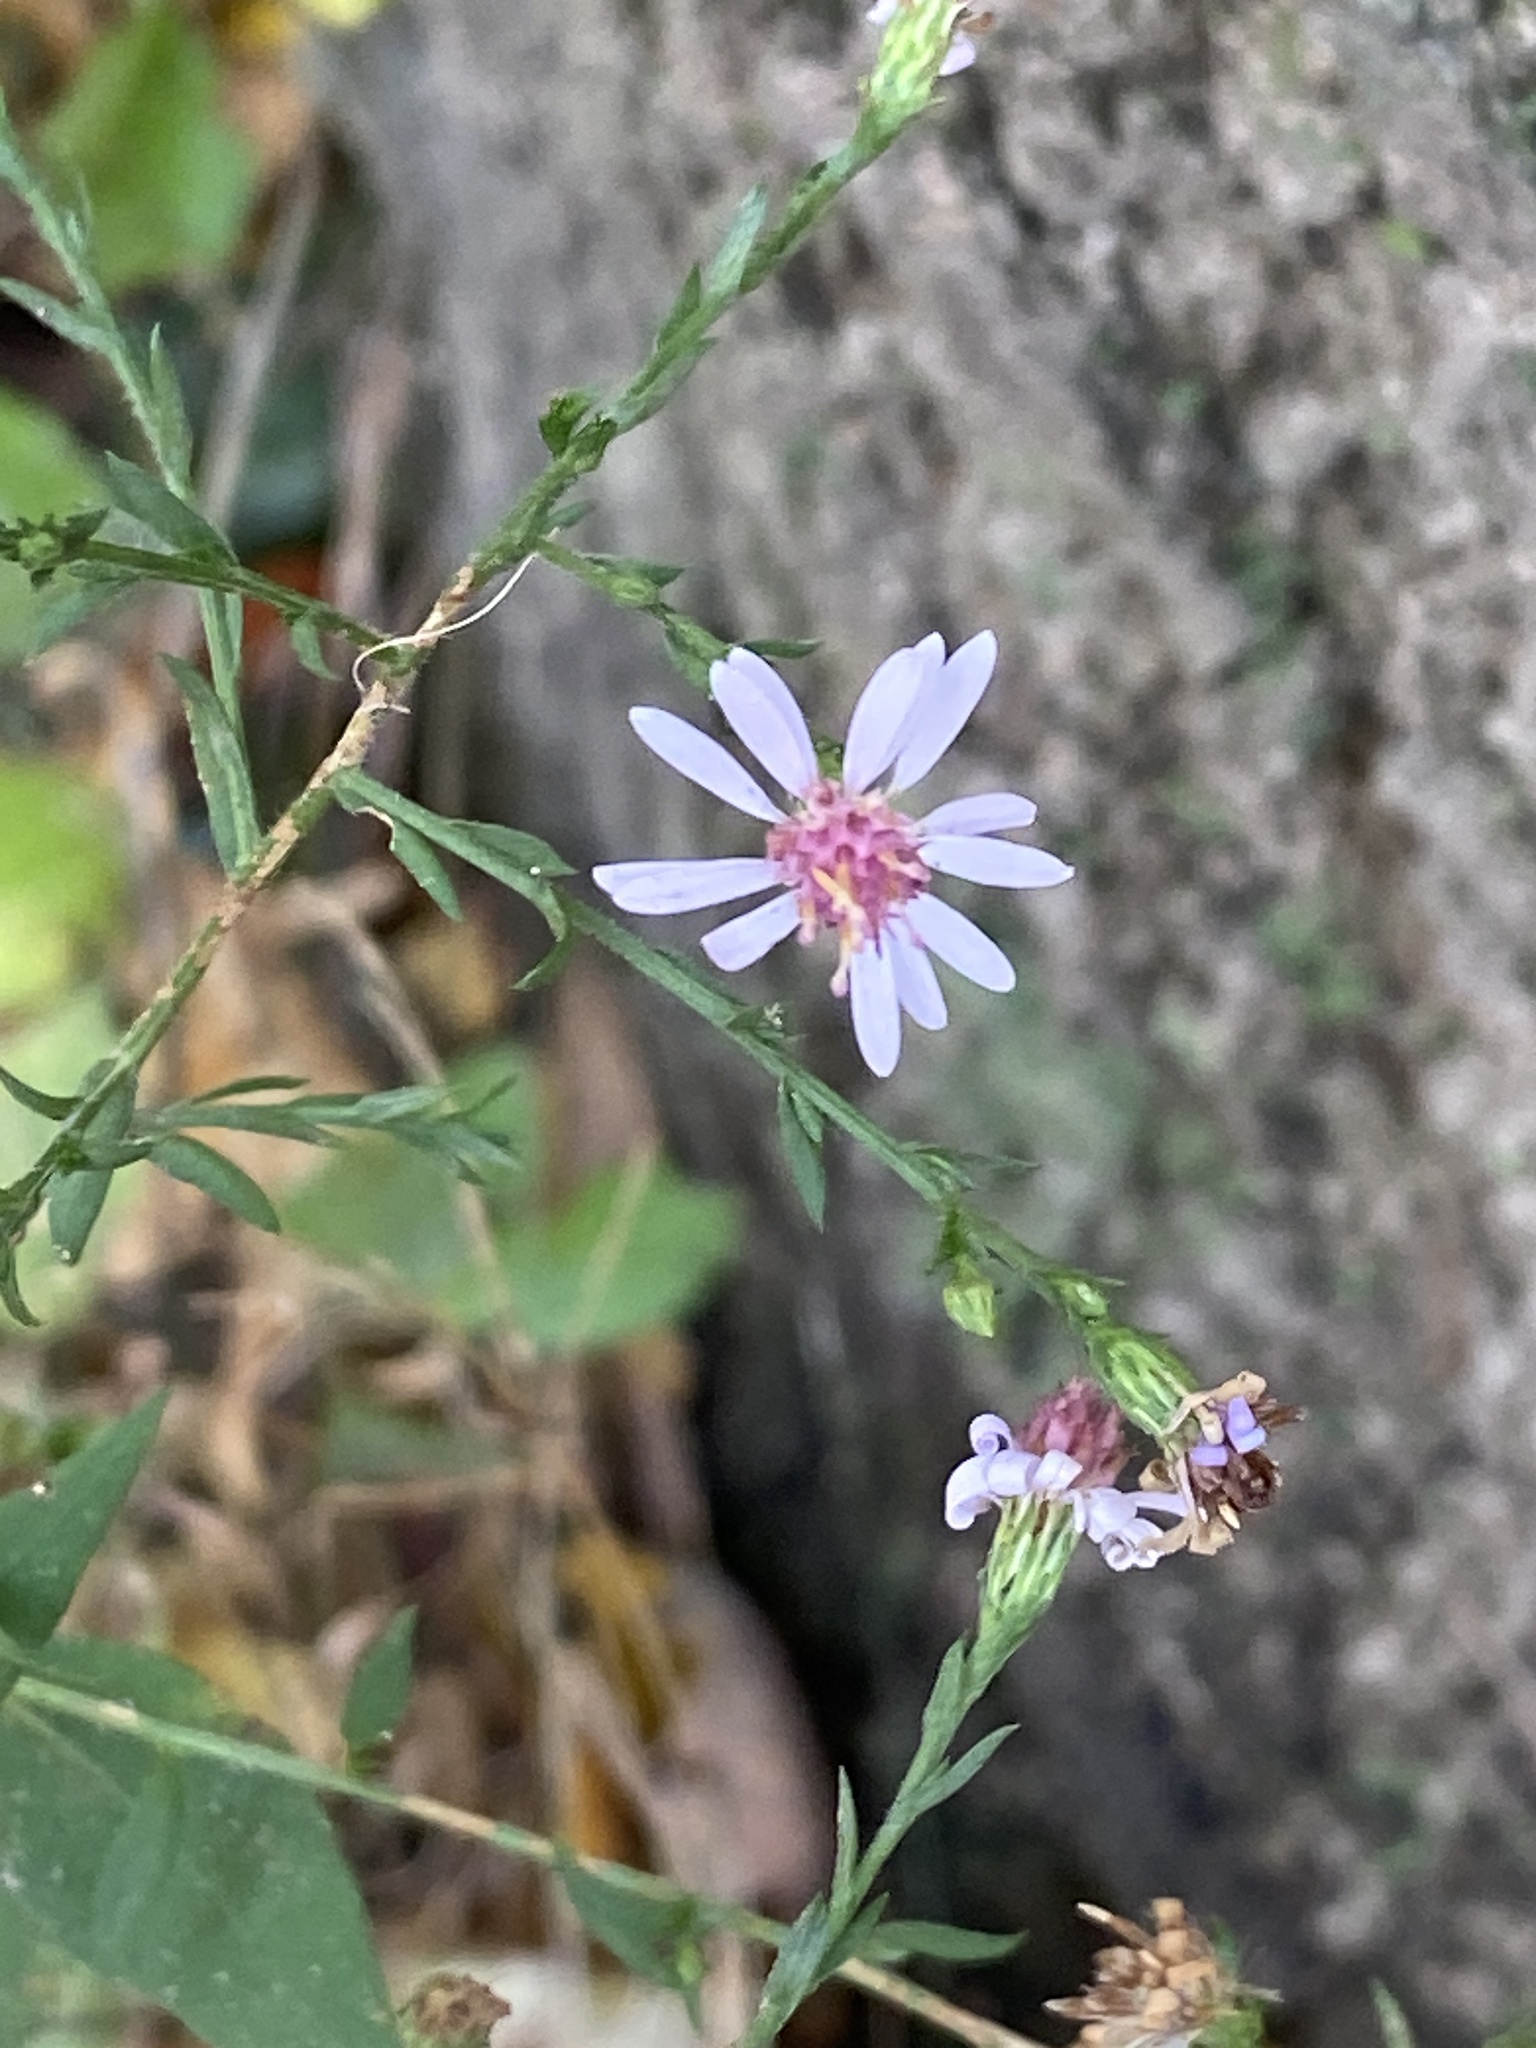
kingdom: Plantae
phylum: Tracheophyta
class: Magnoliopsida
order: Asterales
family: Asteraceae
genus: Symphyotrichum
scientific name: Symphyotrichum cordifolium
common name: Beeweed
